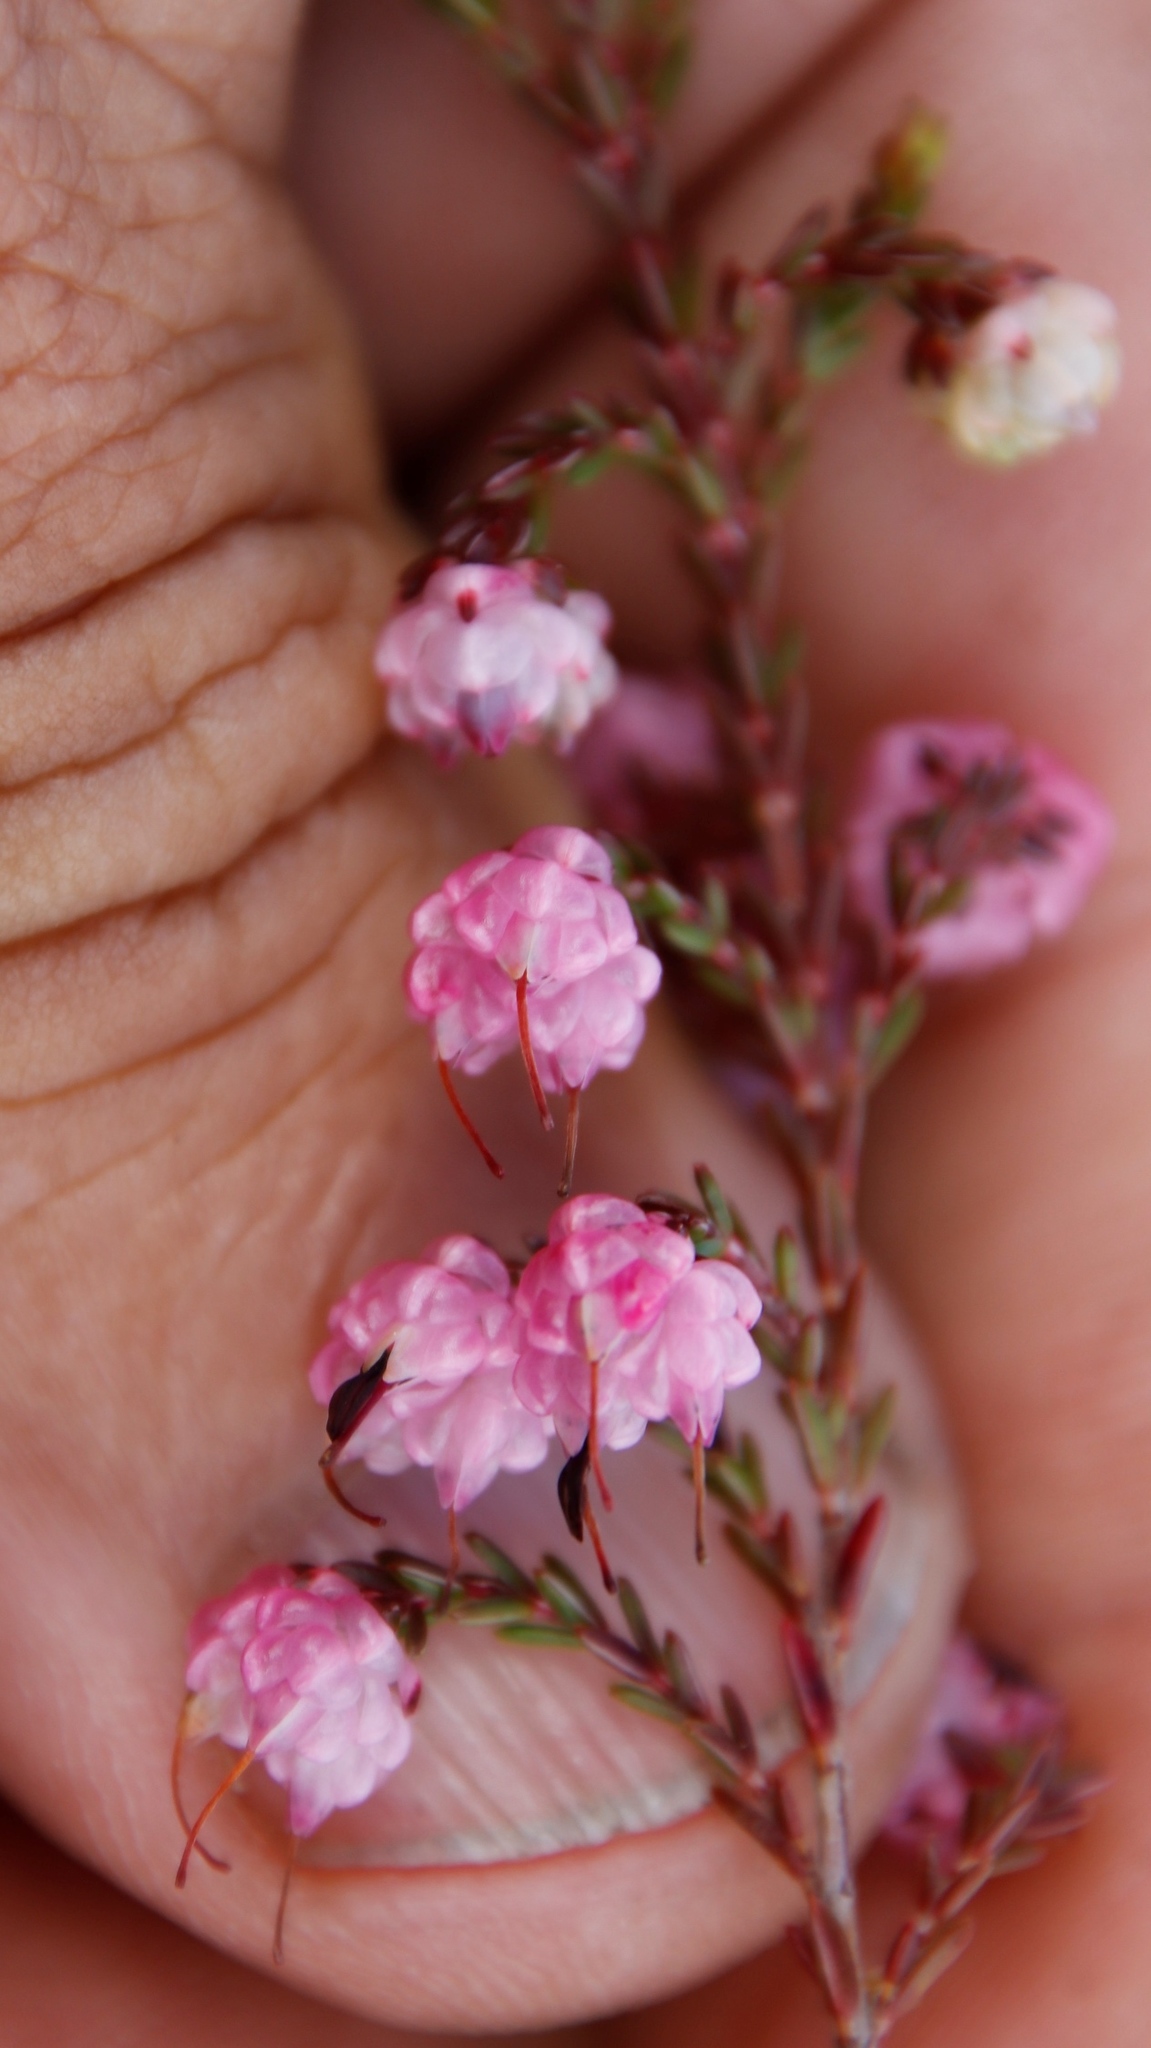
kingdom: Plantae
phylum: Tracheophyta
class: Magnoliopsida
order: Ericales
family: Ericaceae
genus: Erica
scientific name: Erica spumosa
